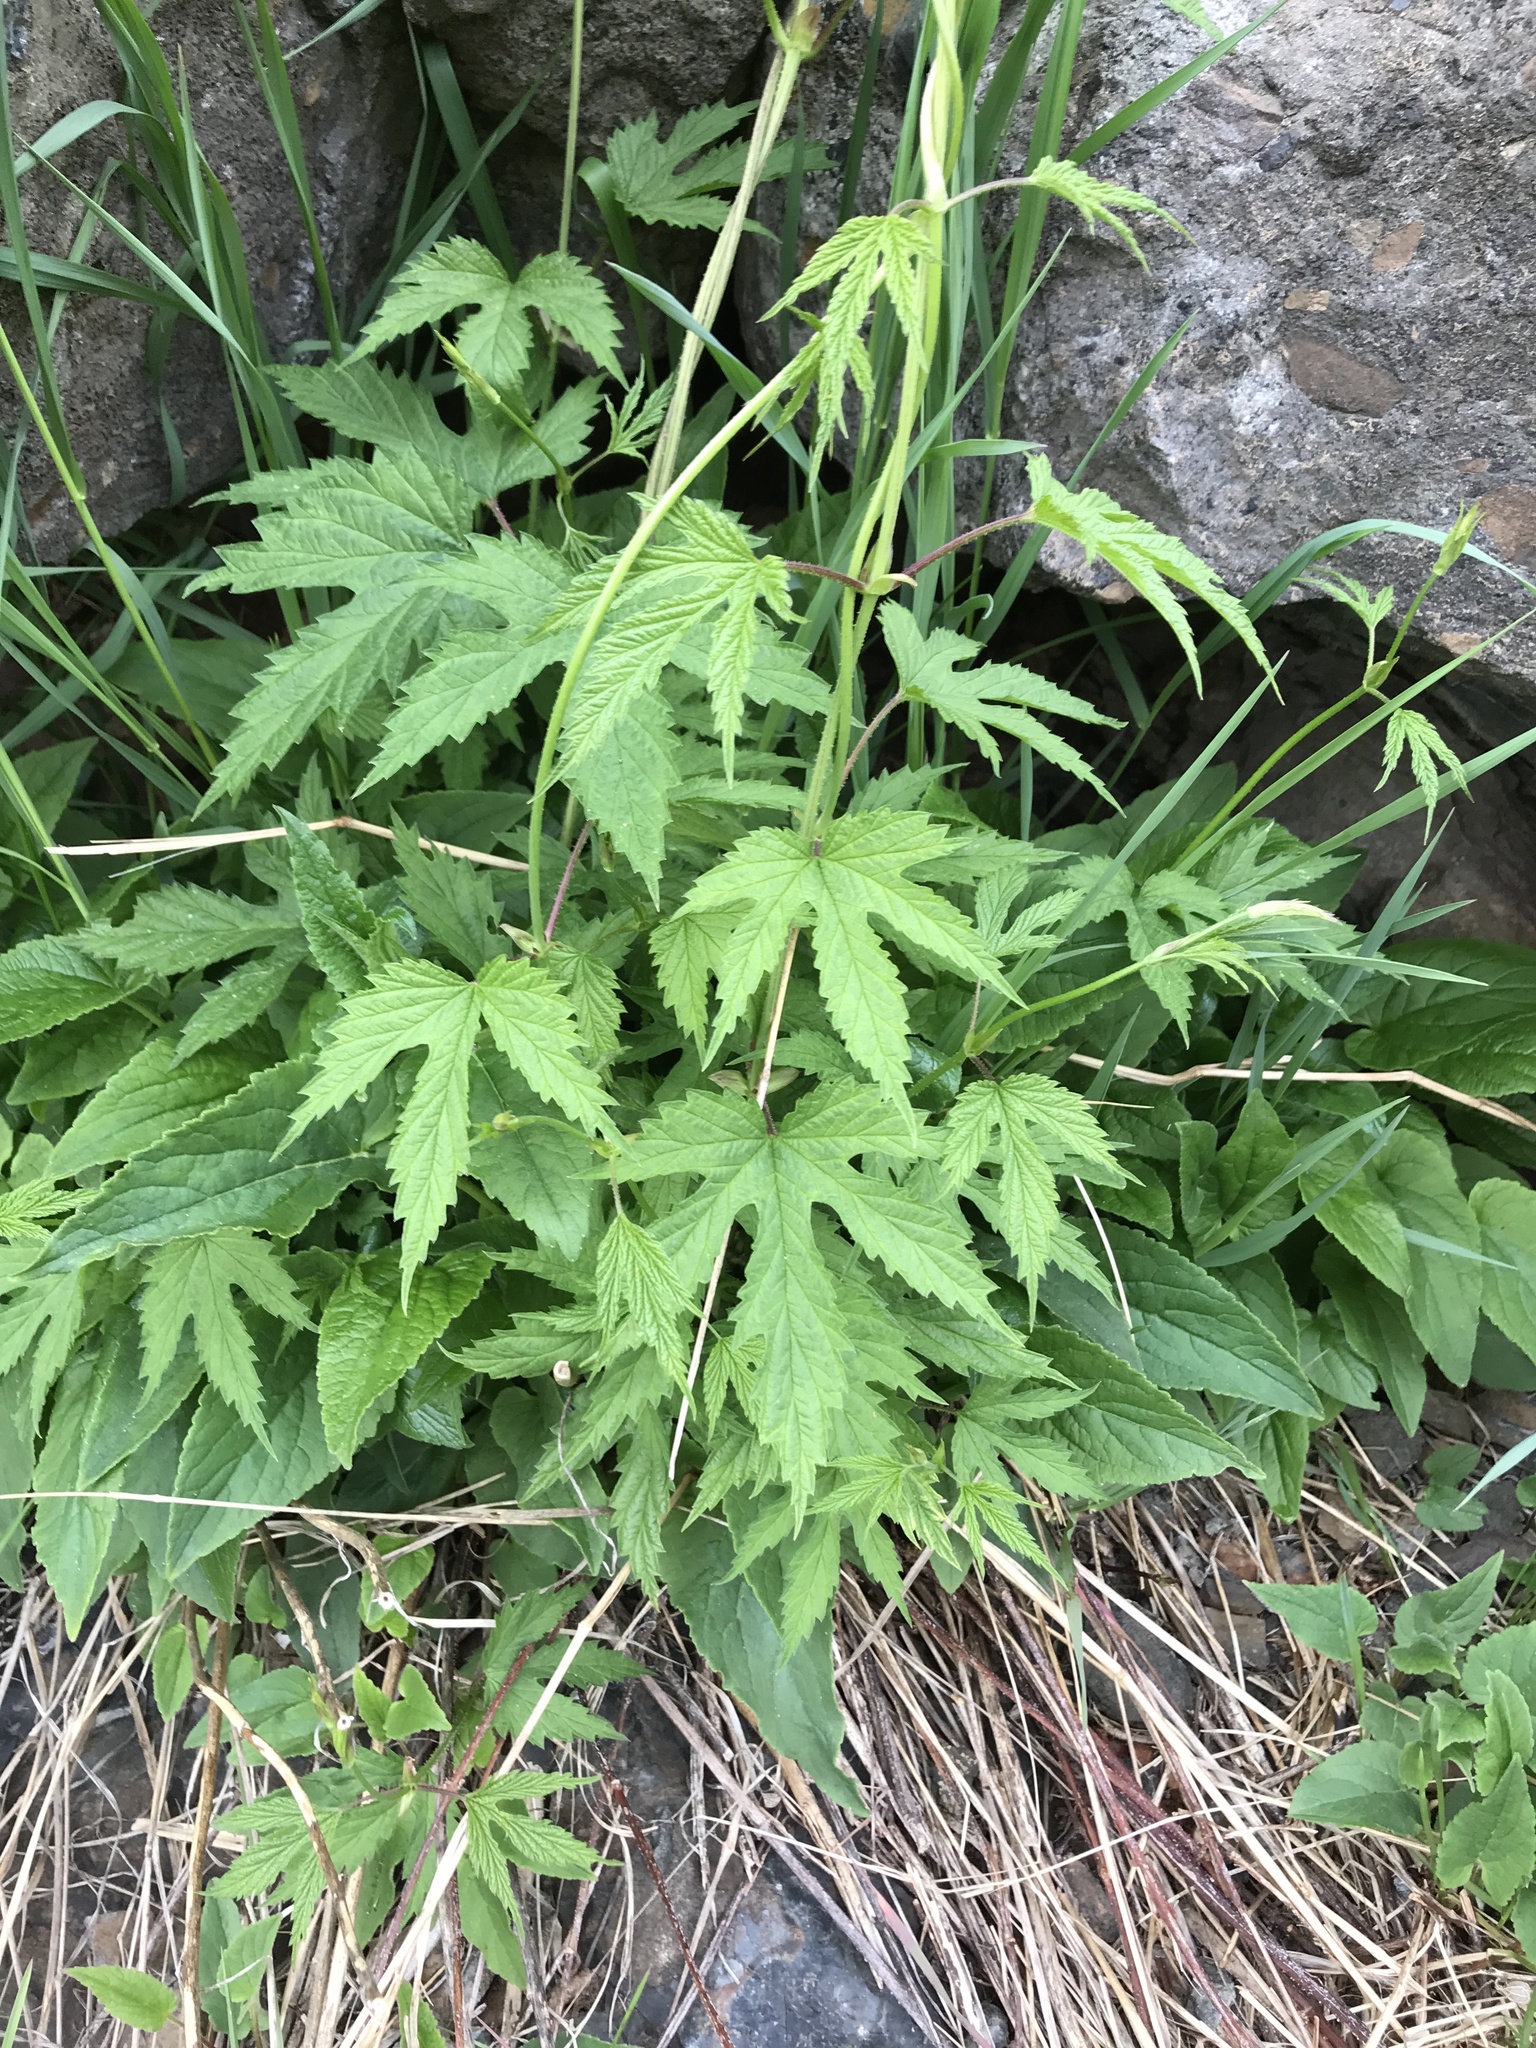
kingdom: Plantae
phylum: Tracheophyta
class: Magnoliopsida
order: Rosales
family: Cannabaceae
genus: Humulus
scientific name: Humulus lupulus
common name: Hop
